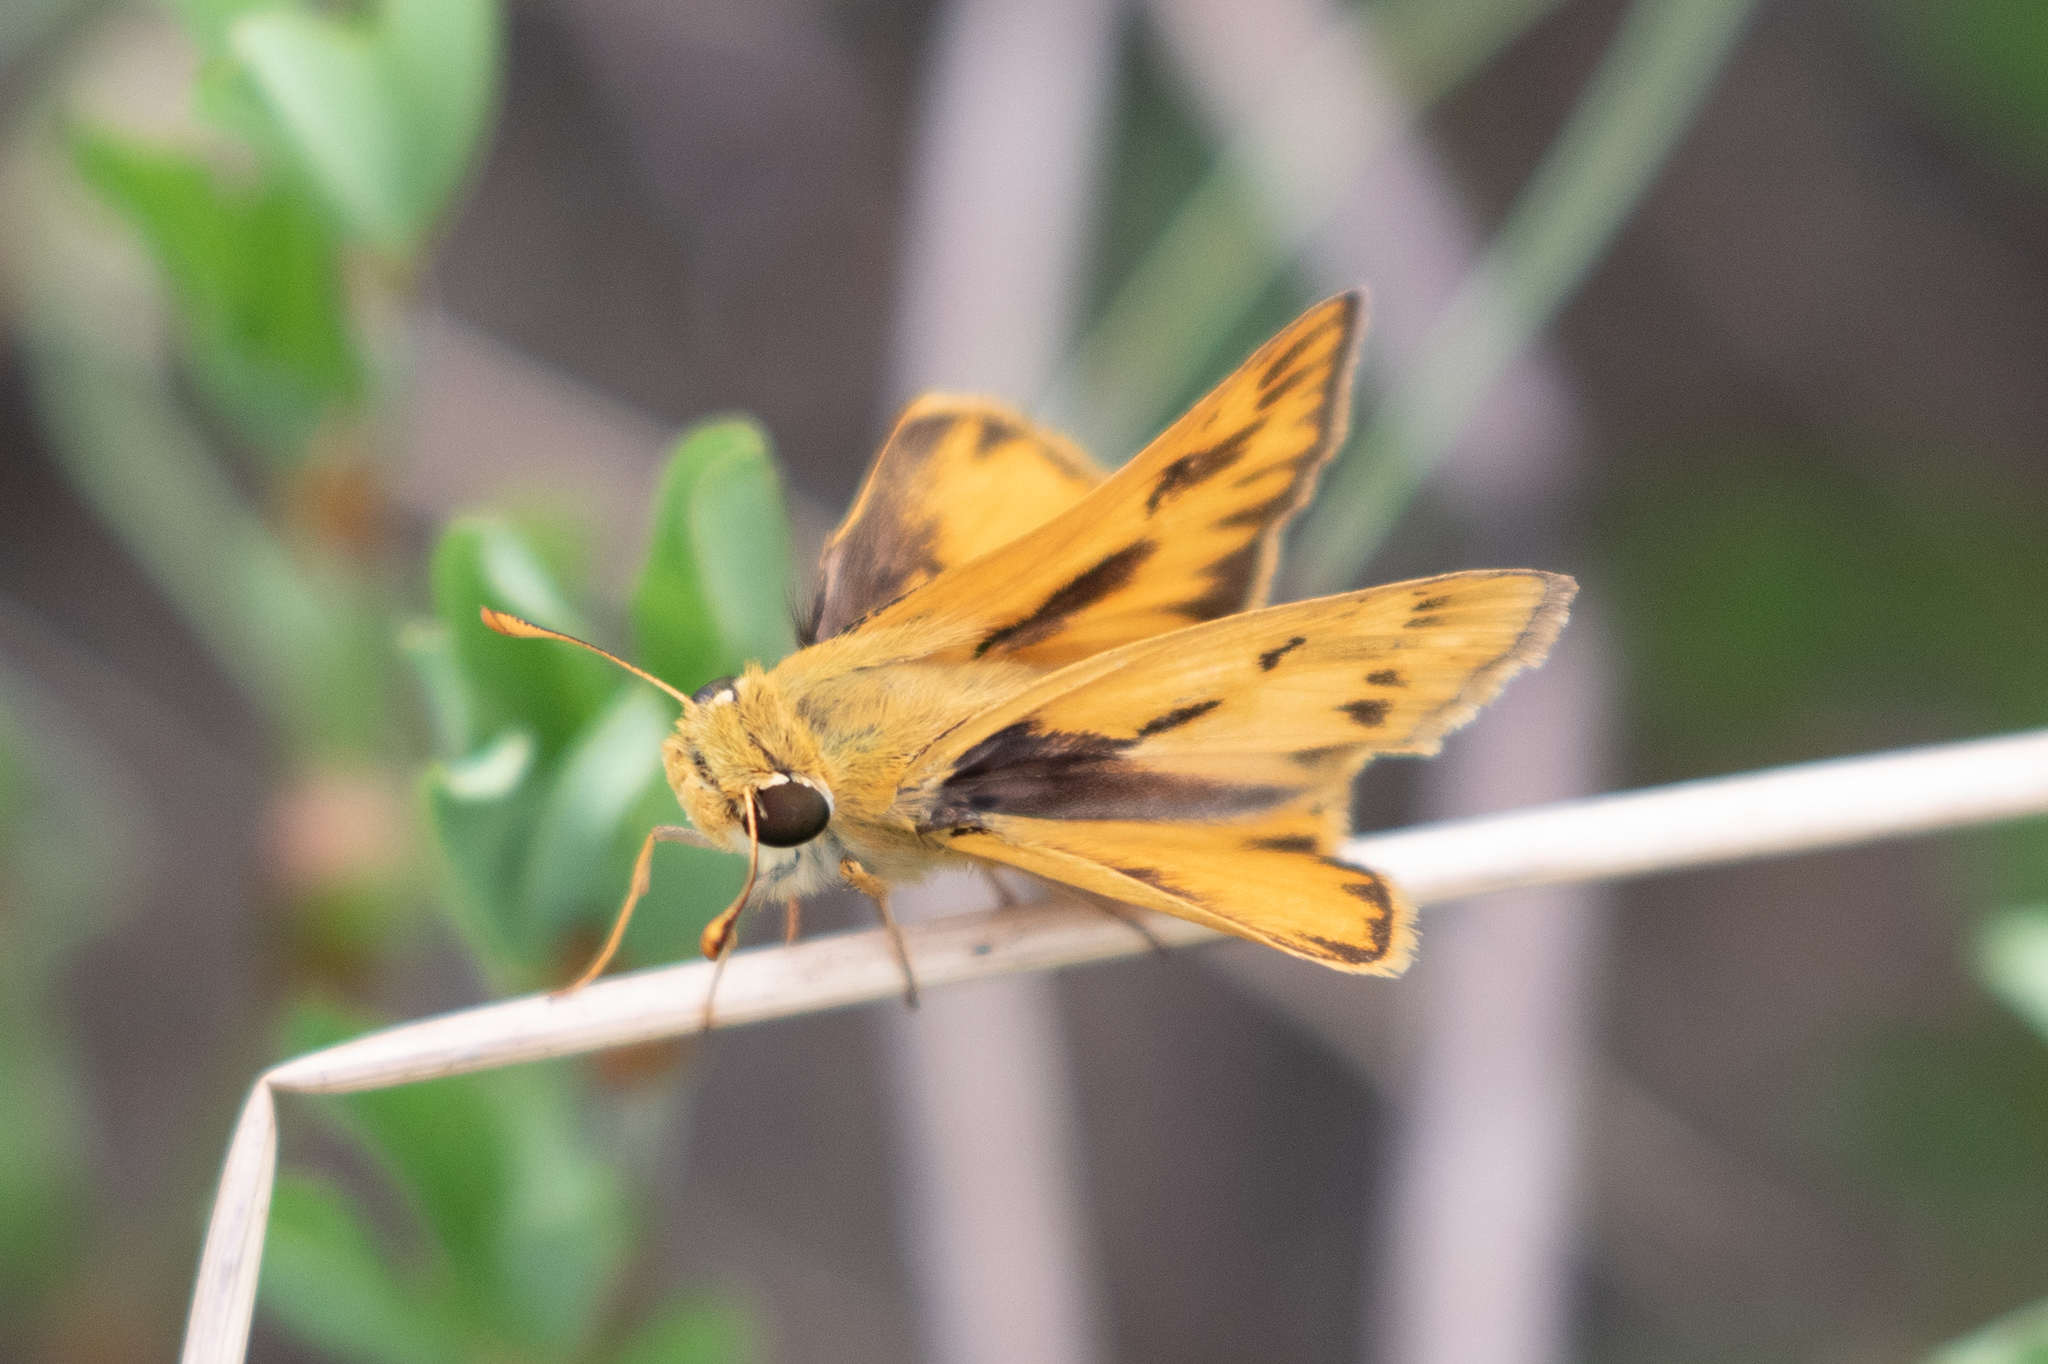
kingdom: Animalia
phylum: Arthropoda
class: Insecta
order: Lepidoptera
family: Hesperiidae
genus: Hylephila
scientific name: Hylephila phyleus
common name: Fiery skipper
